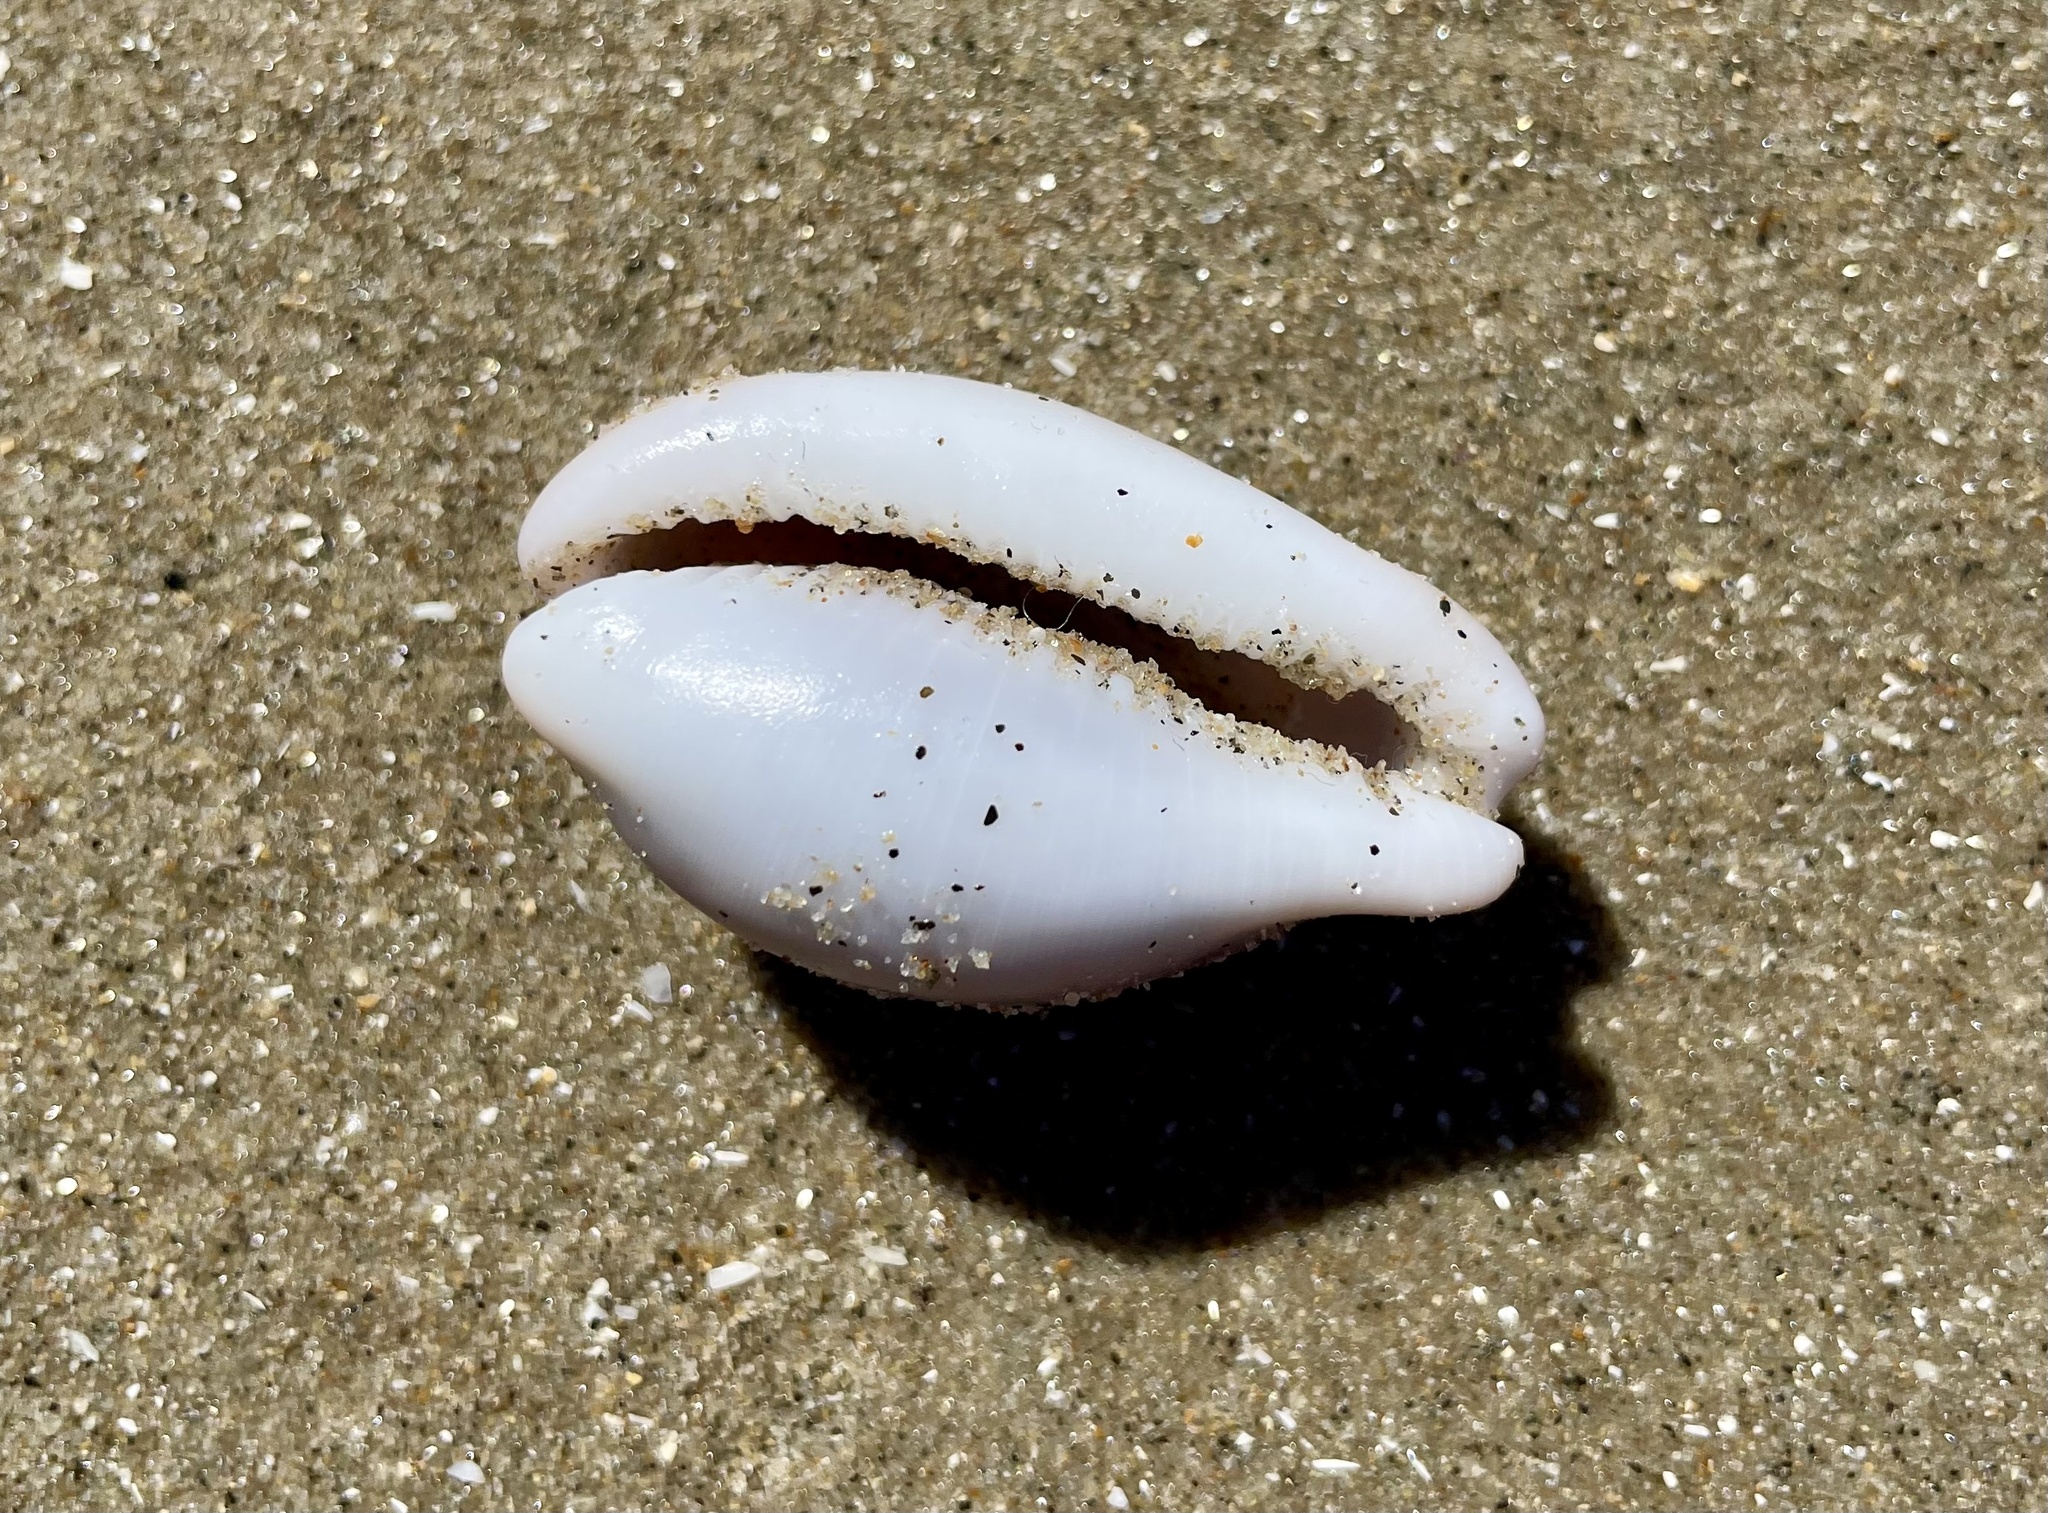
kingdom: Animalia
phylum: Mollusca
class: Gastropoda
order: Littorinimorpha
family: Cypraeidae
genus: Neobernaya
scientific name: Neobernaya spadicea
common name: Chestnut cowrie
